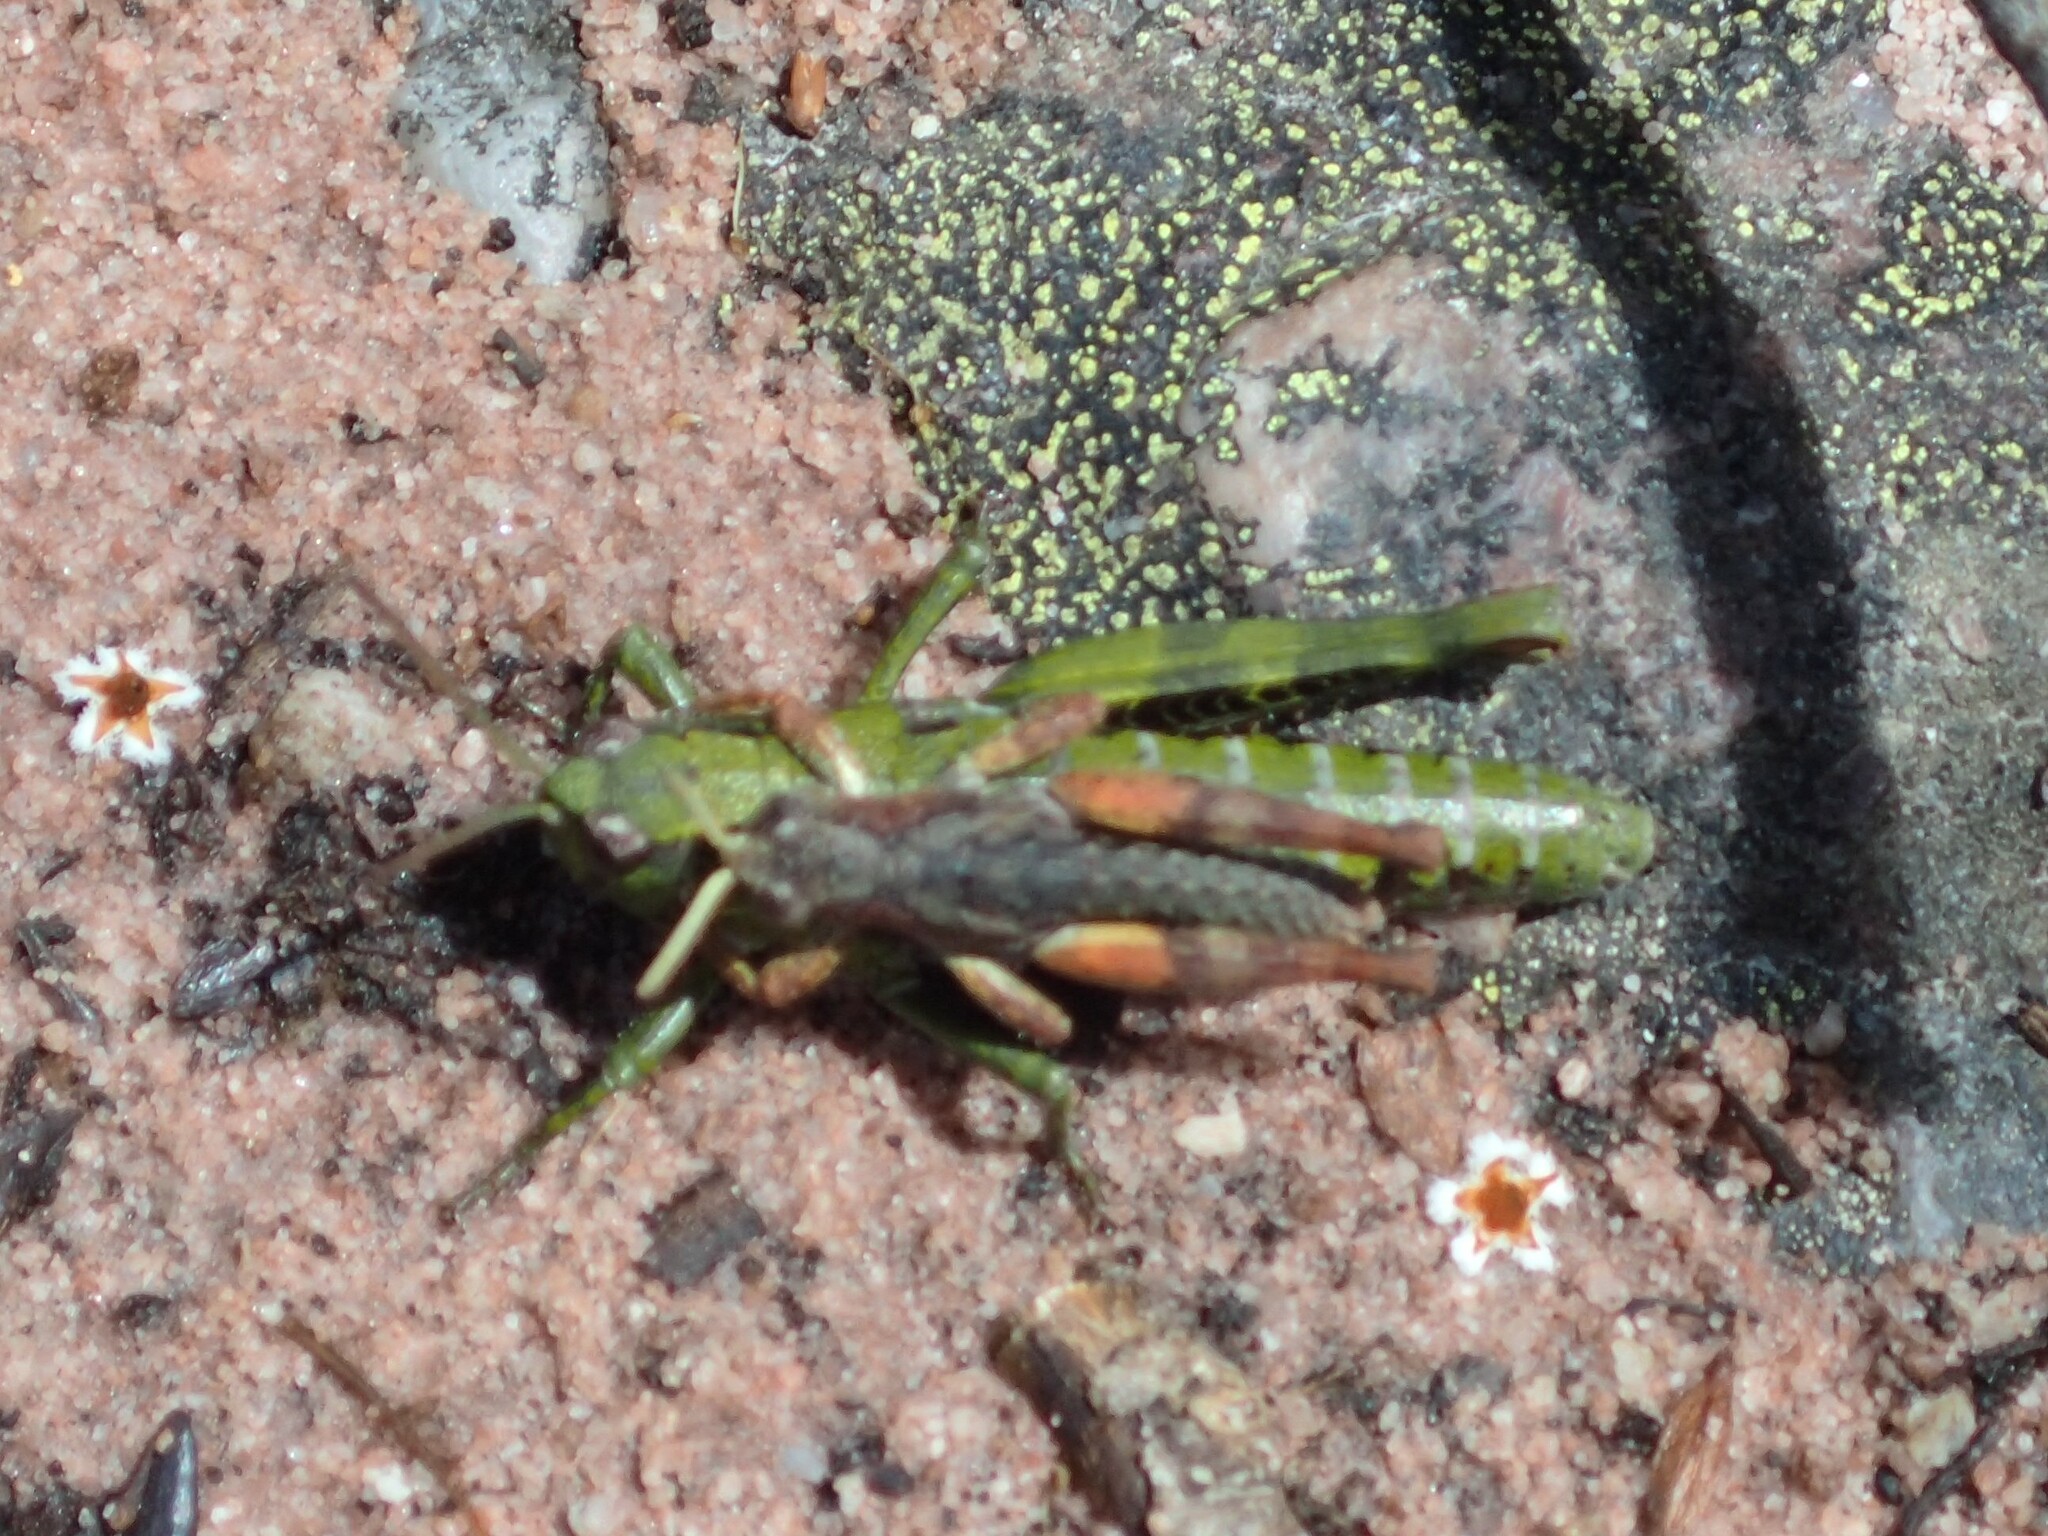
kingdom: Animalia
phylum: Arthropoda
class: Insecta
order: Orthoptera
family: Acrididae
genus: Tasmaniacris
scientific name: Tasmaniacris tasmaniensis
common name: Tasmanian grasshopper
